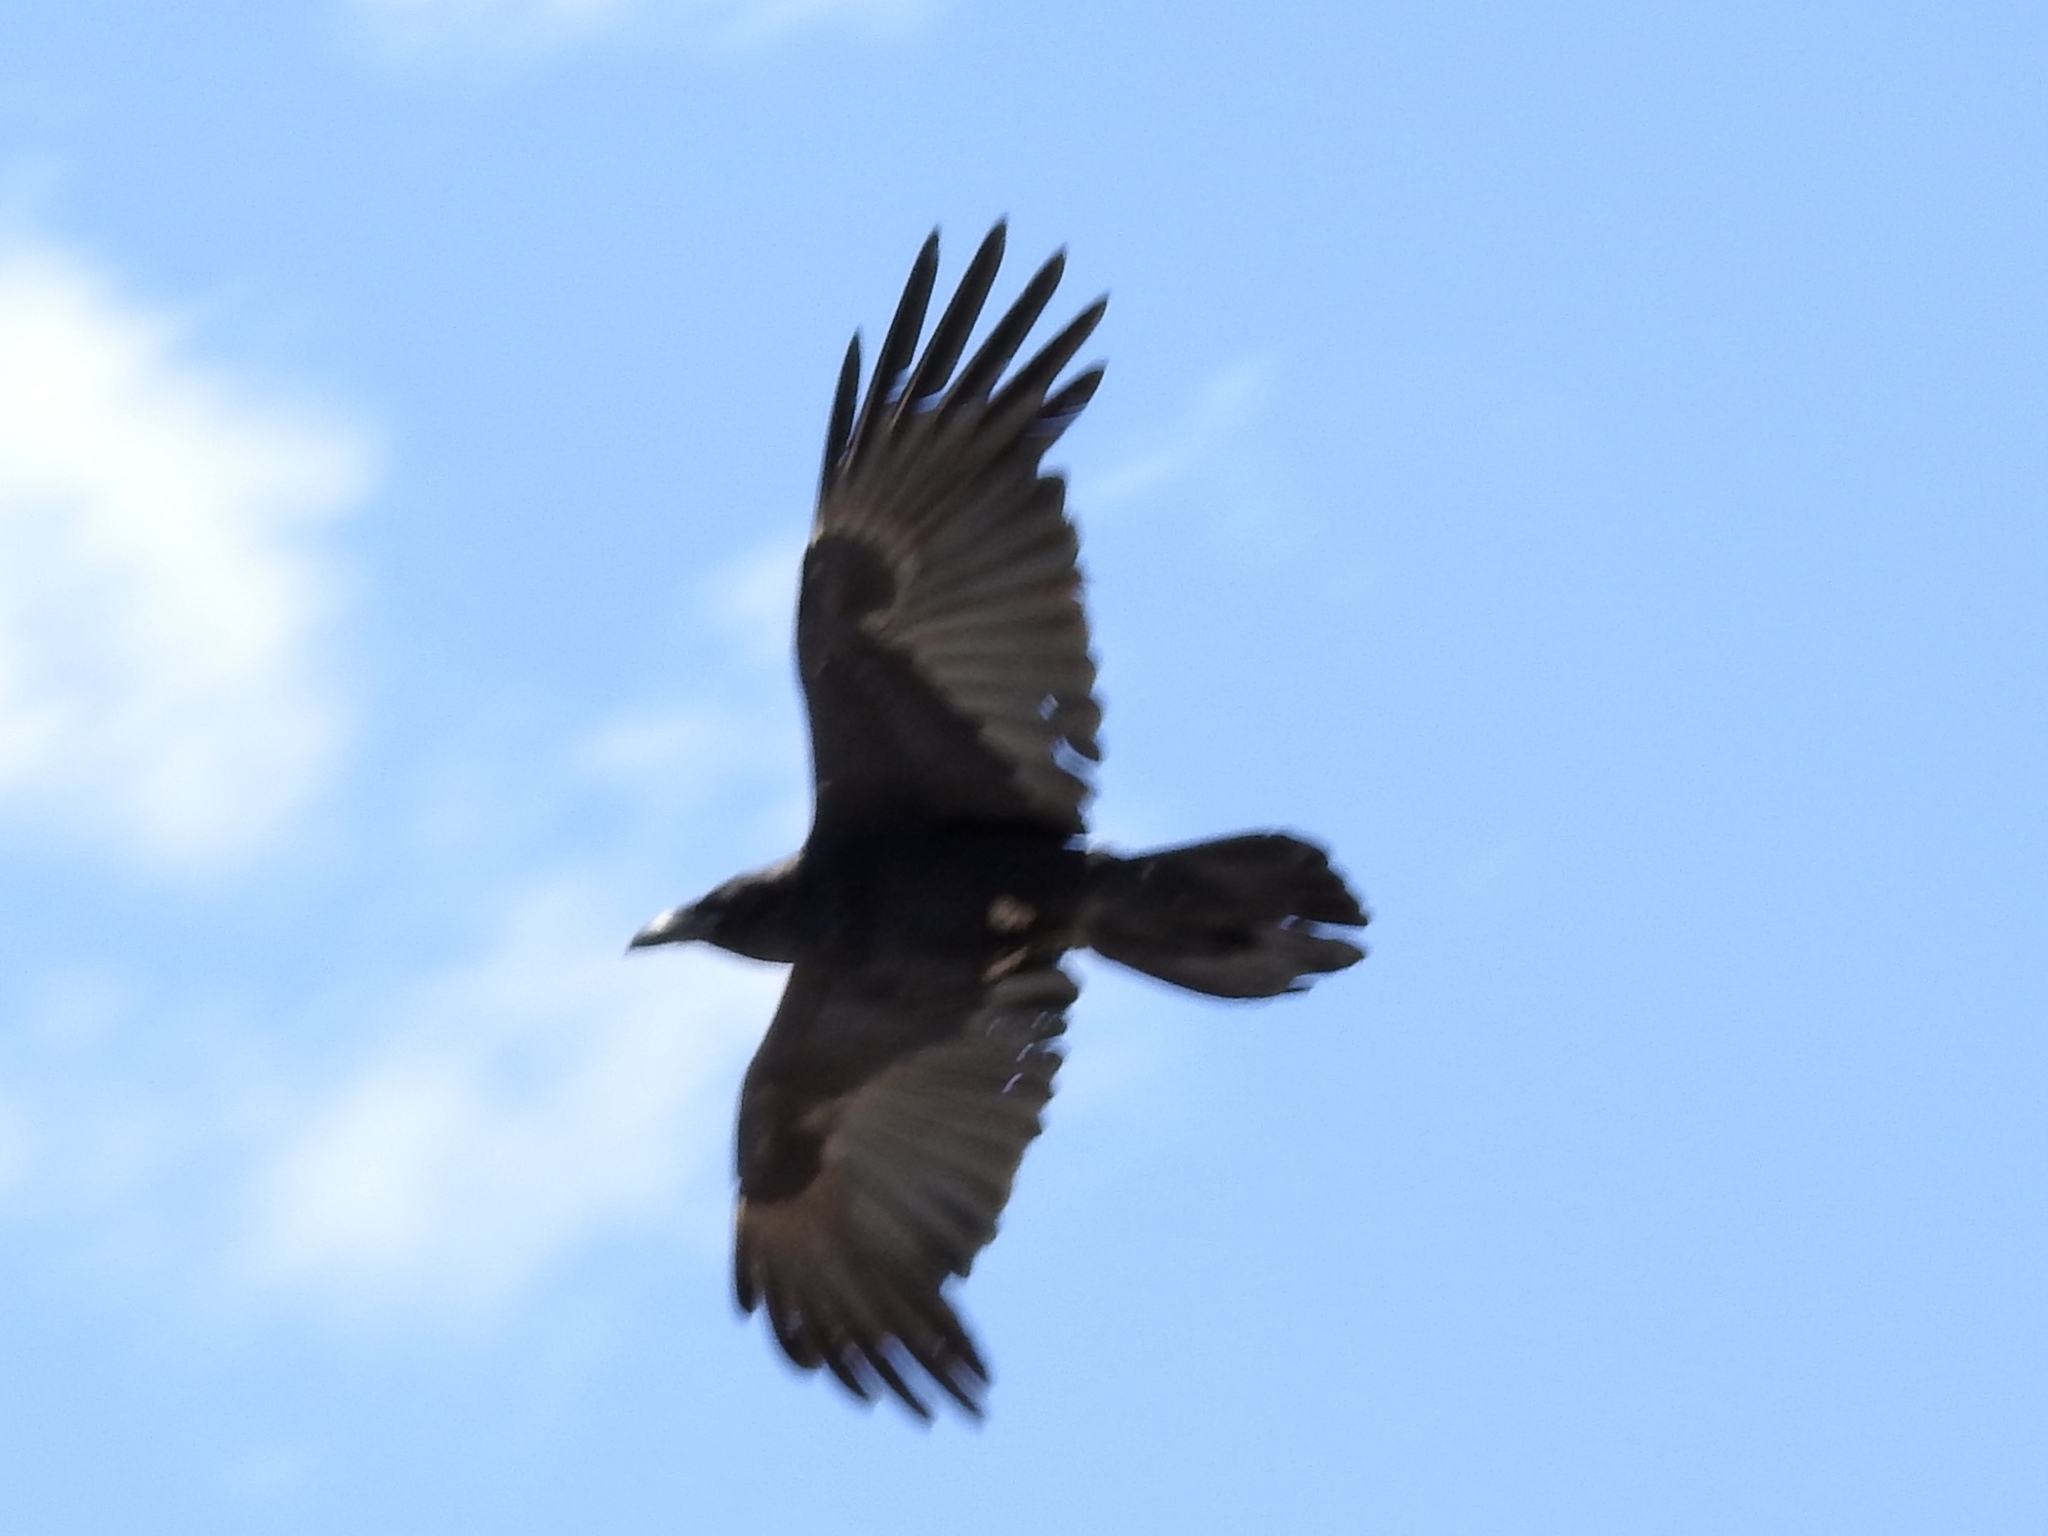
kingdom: Animalia
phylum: Chordata
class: Aves
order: Passeriformes
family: Corvidae
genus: Corvus
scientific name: Corvus corax
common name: Common raven
